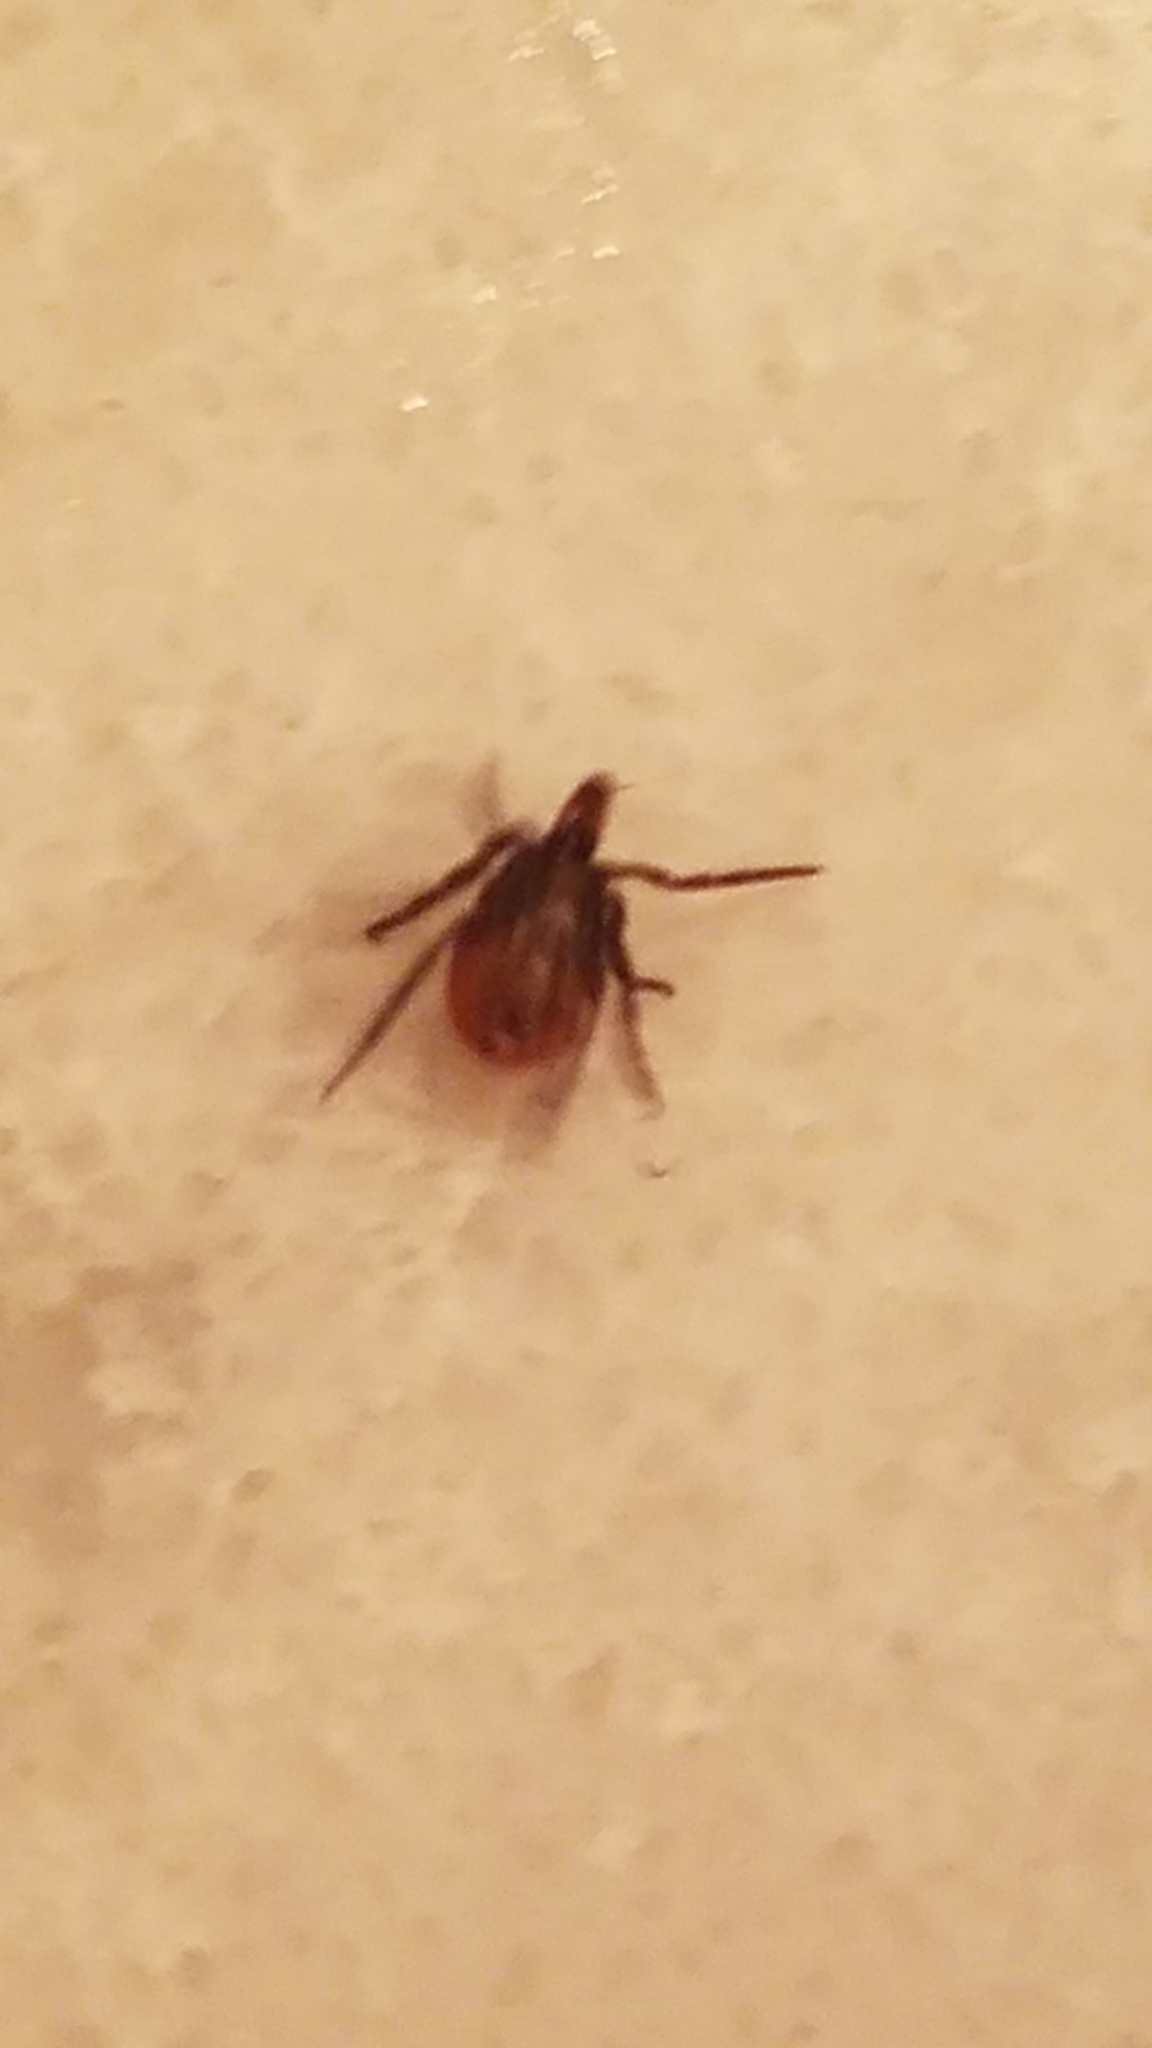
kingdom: Animalia
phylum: Arthropoda
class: Arachnida
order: Ixodida
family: Ixodidae
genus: Ixodes
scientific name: Ixodes scapularis
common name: Black legged tick
